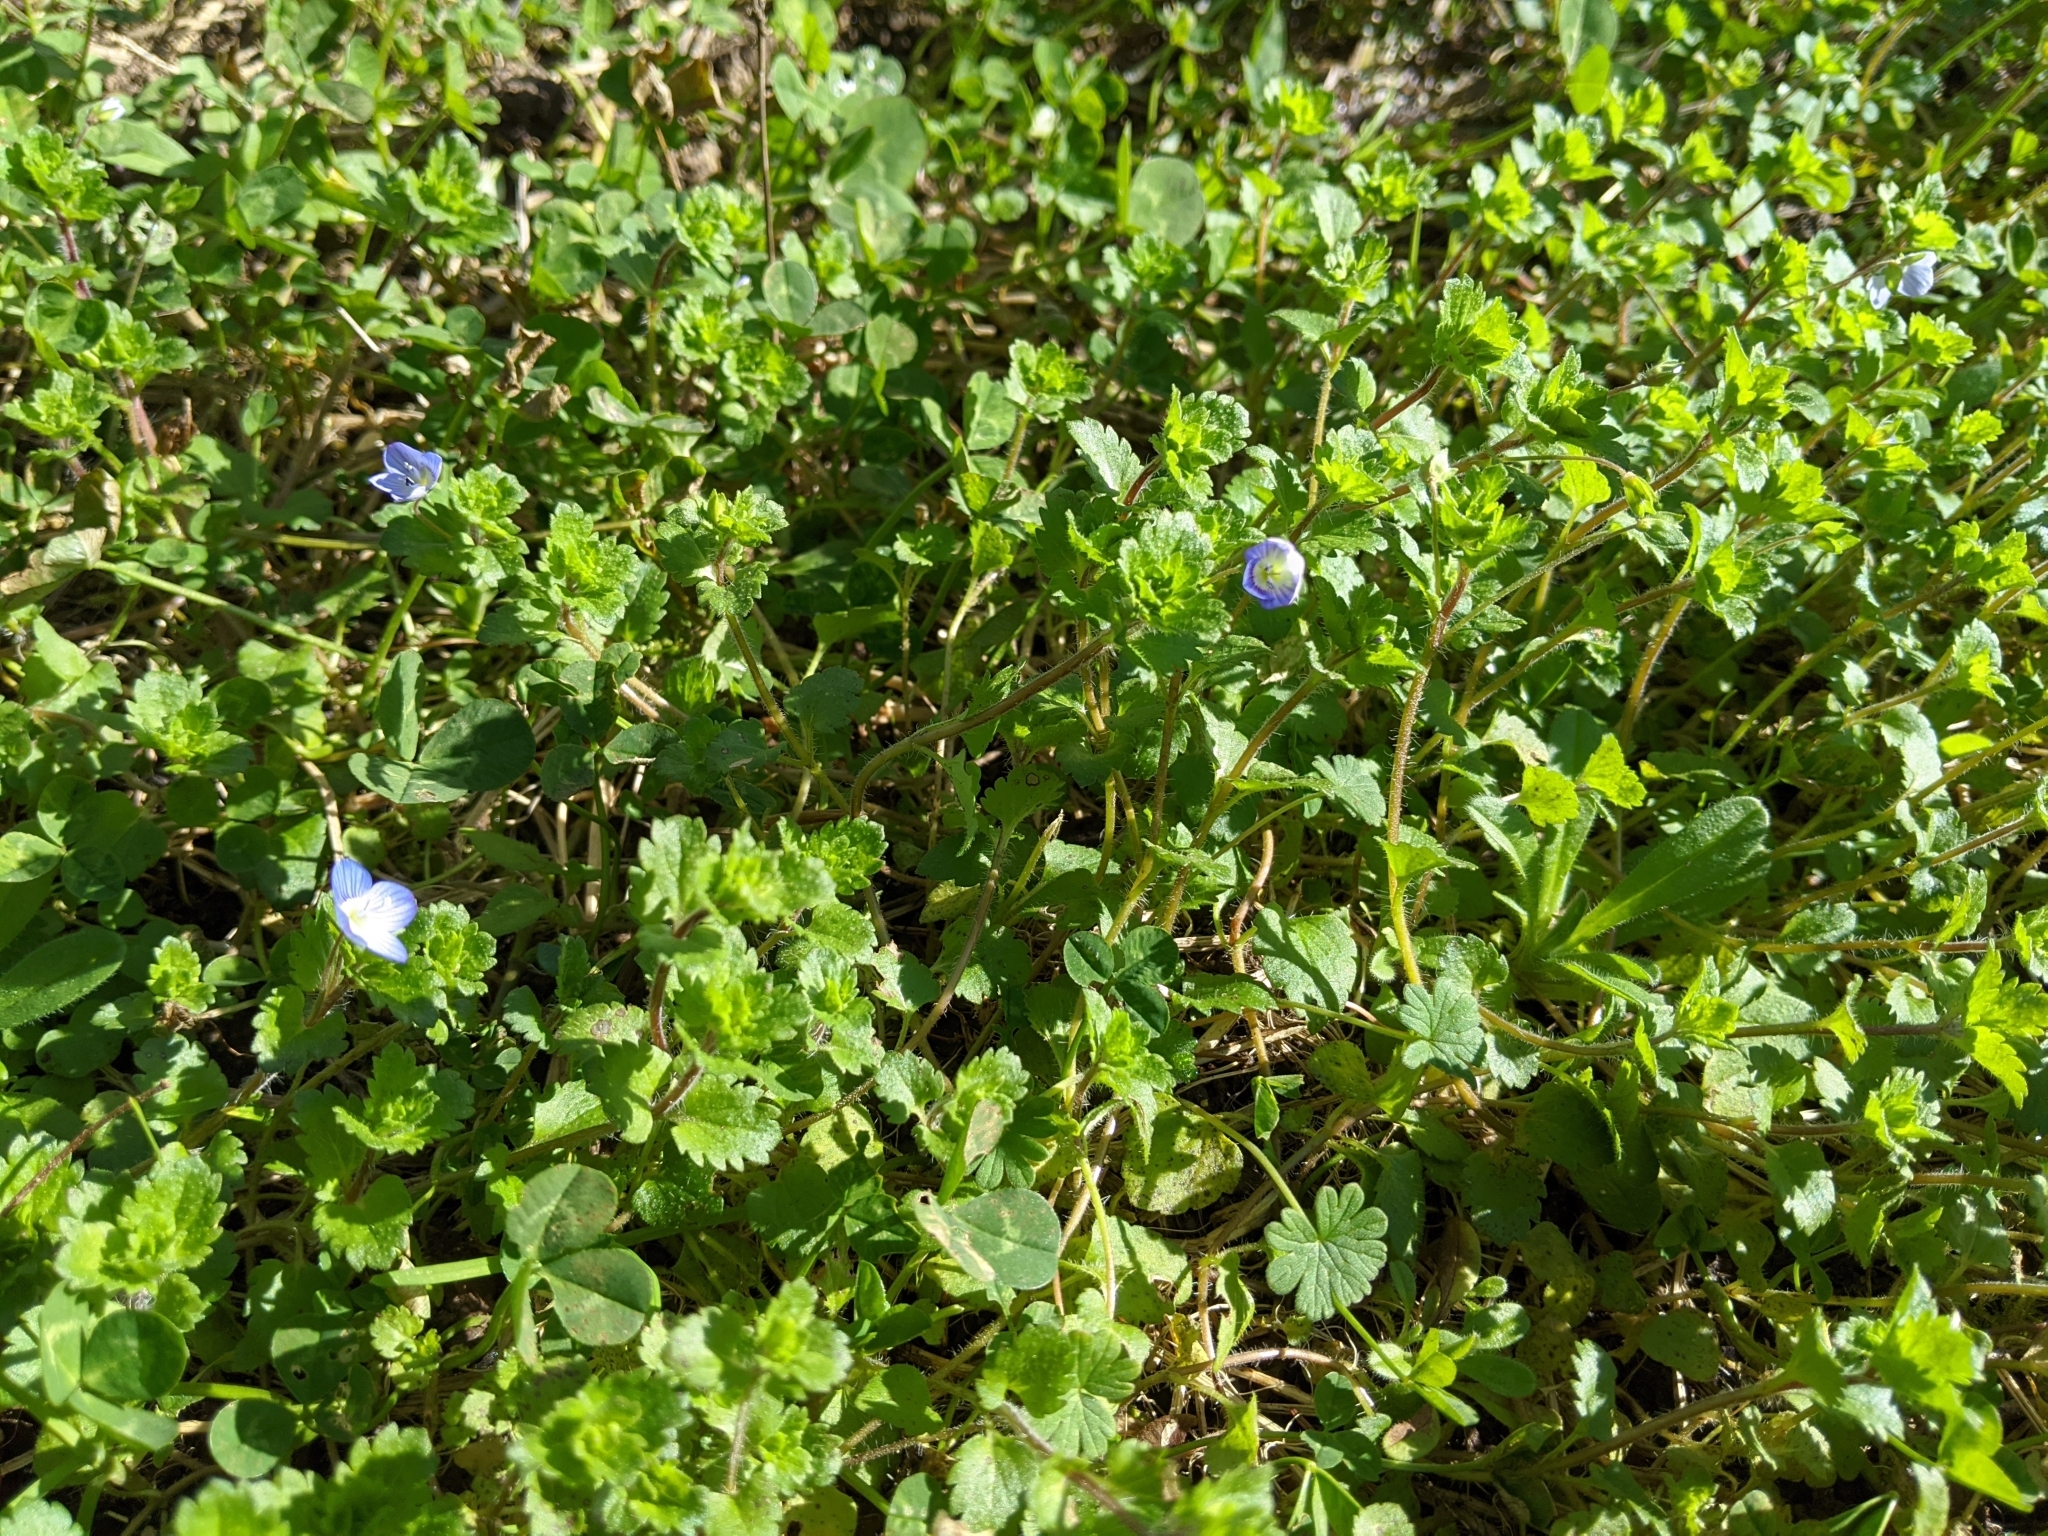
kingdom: Plantae
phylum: Tracheophyta
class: Magnoliopsida
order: Lamiales
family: Plantaginaceae
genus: Veronica
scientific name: Veronica persica
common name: Common field-speedwell
